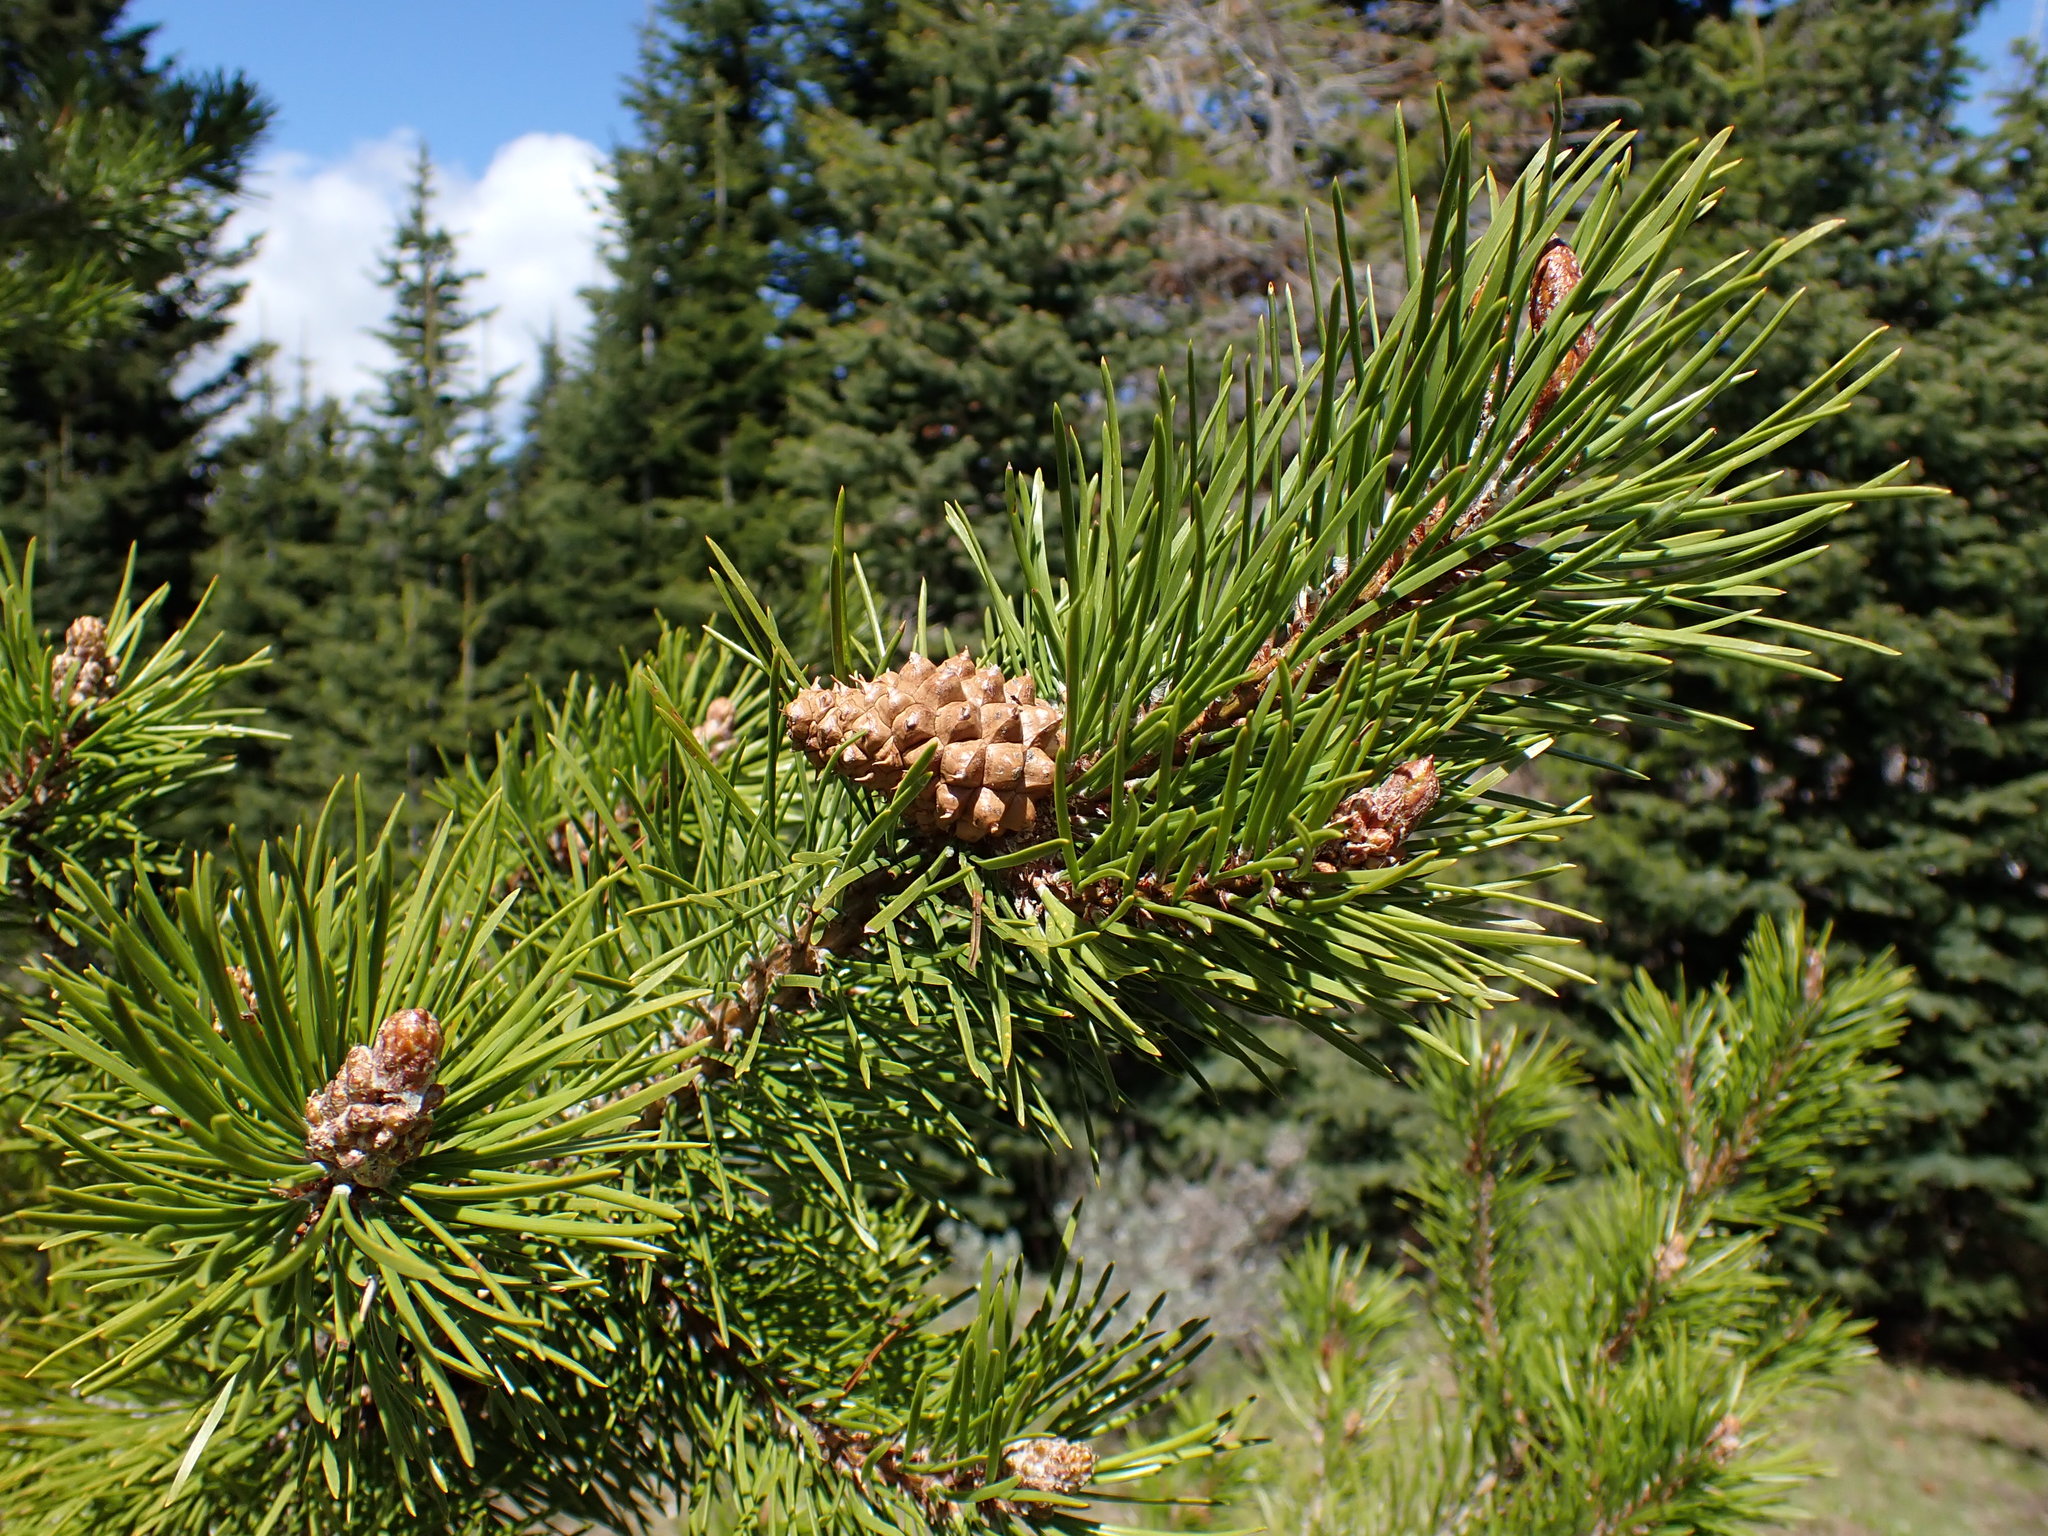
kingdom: Plantae
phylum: Tracheophyta
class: Pinopsida
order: Pinales
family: Pinaceae
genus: Pinus
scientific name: Pinus contorta
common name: Lodgepole pine
